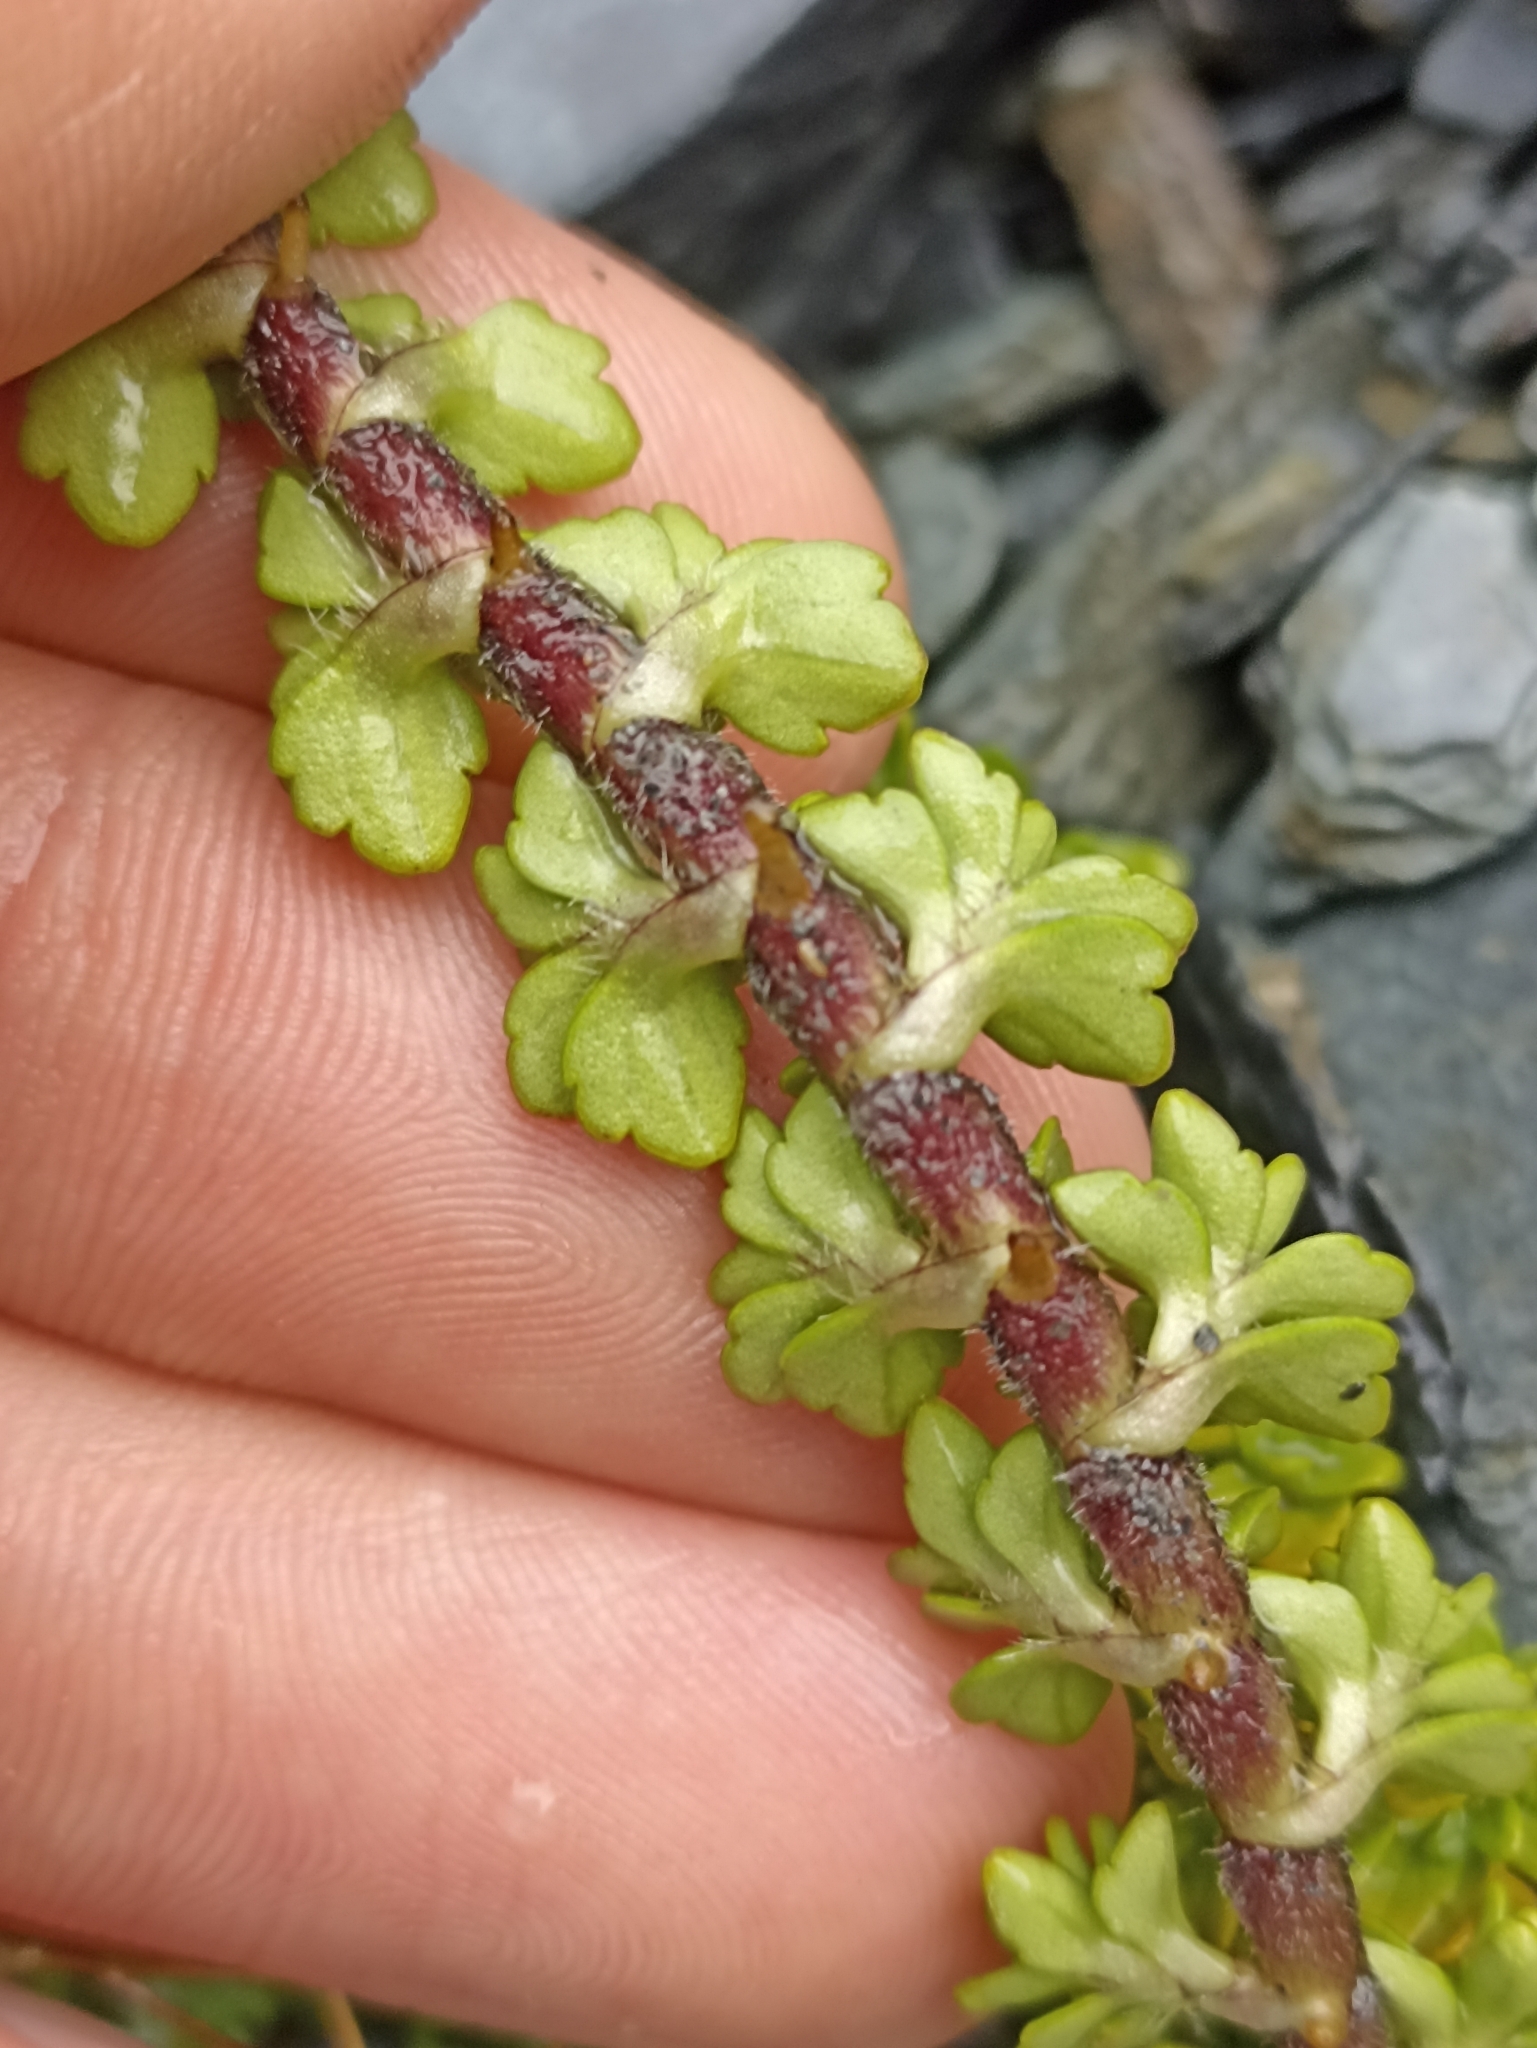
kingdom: Plantae
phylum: Tracheophyta
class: Magnoliopsida
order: Lamiales
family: Plantaginaceae
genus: Ourisia
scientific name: Ourisia caespitosa
